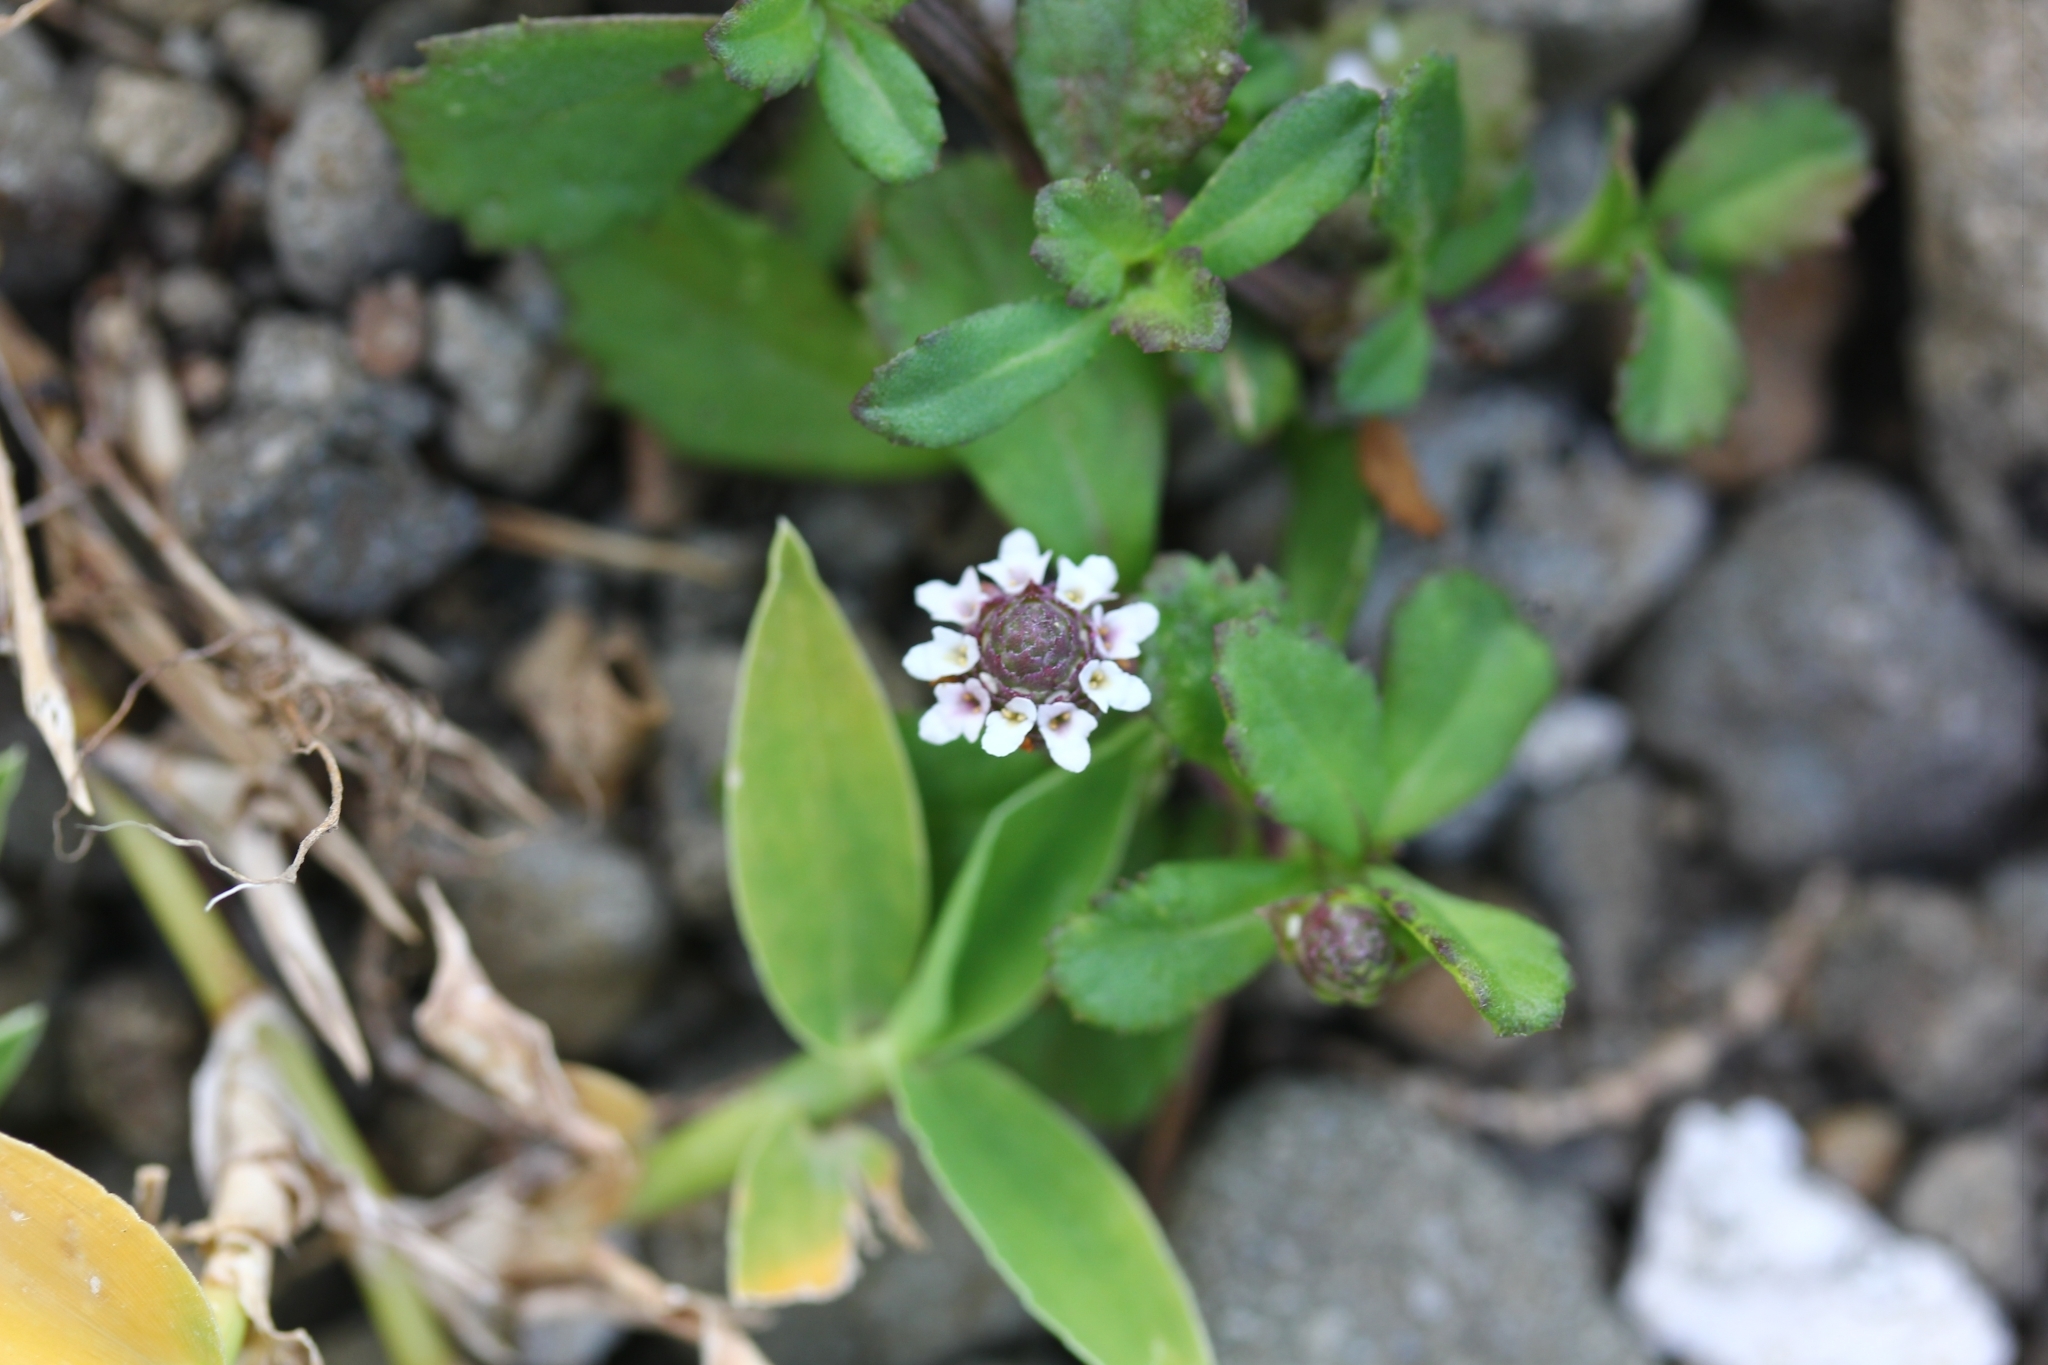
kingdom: Plantae
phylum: Tracheophyta
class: Magnoliopsida
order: Lamiales
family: Verbenaceae
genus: Phyla
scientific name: Phyla nodiflora
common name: Frogfruit
